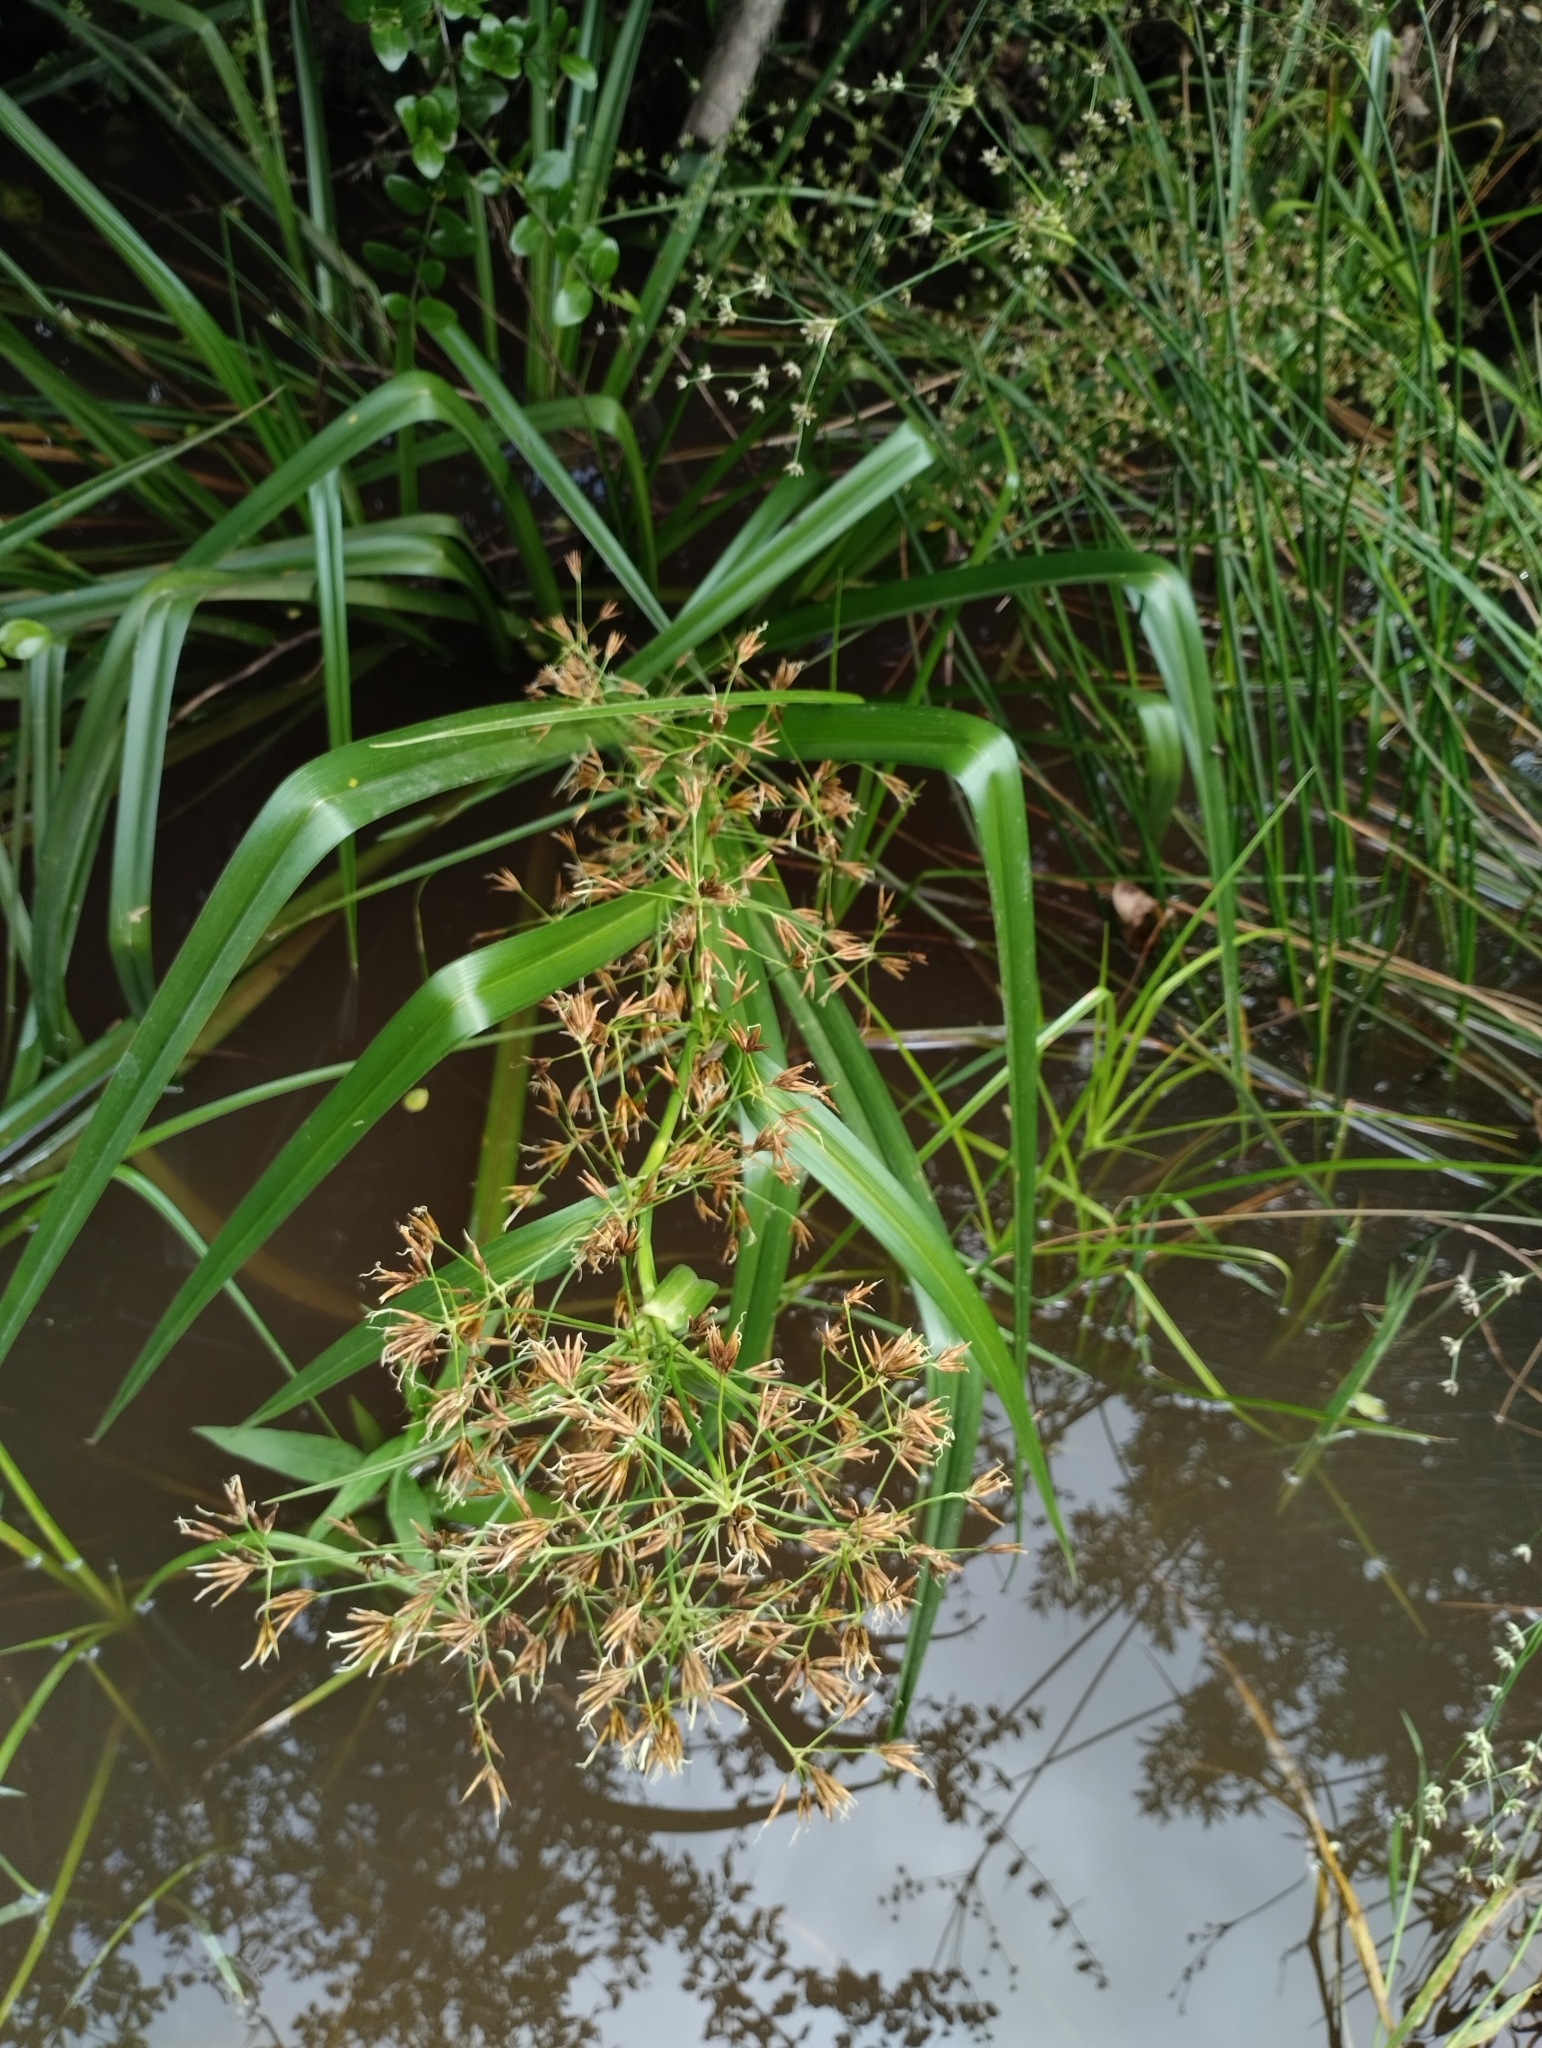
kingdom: Plantae
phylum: Tracheophyta
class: Liliopsida
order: Poales
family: Cyperaceae
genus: Rhynchospora
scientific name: Rhynchospora corymbosa
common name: Golden beak sedge
